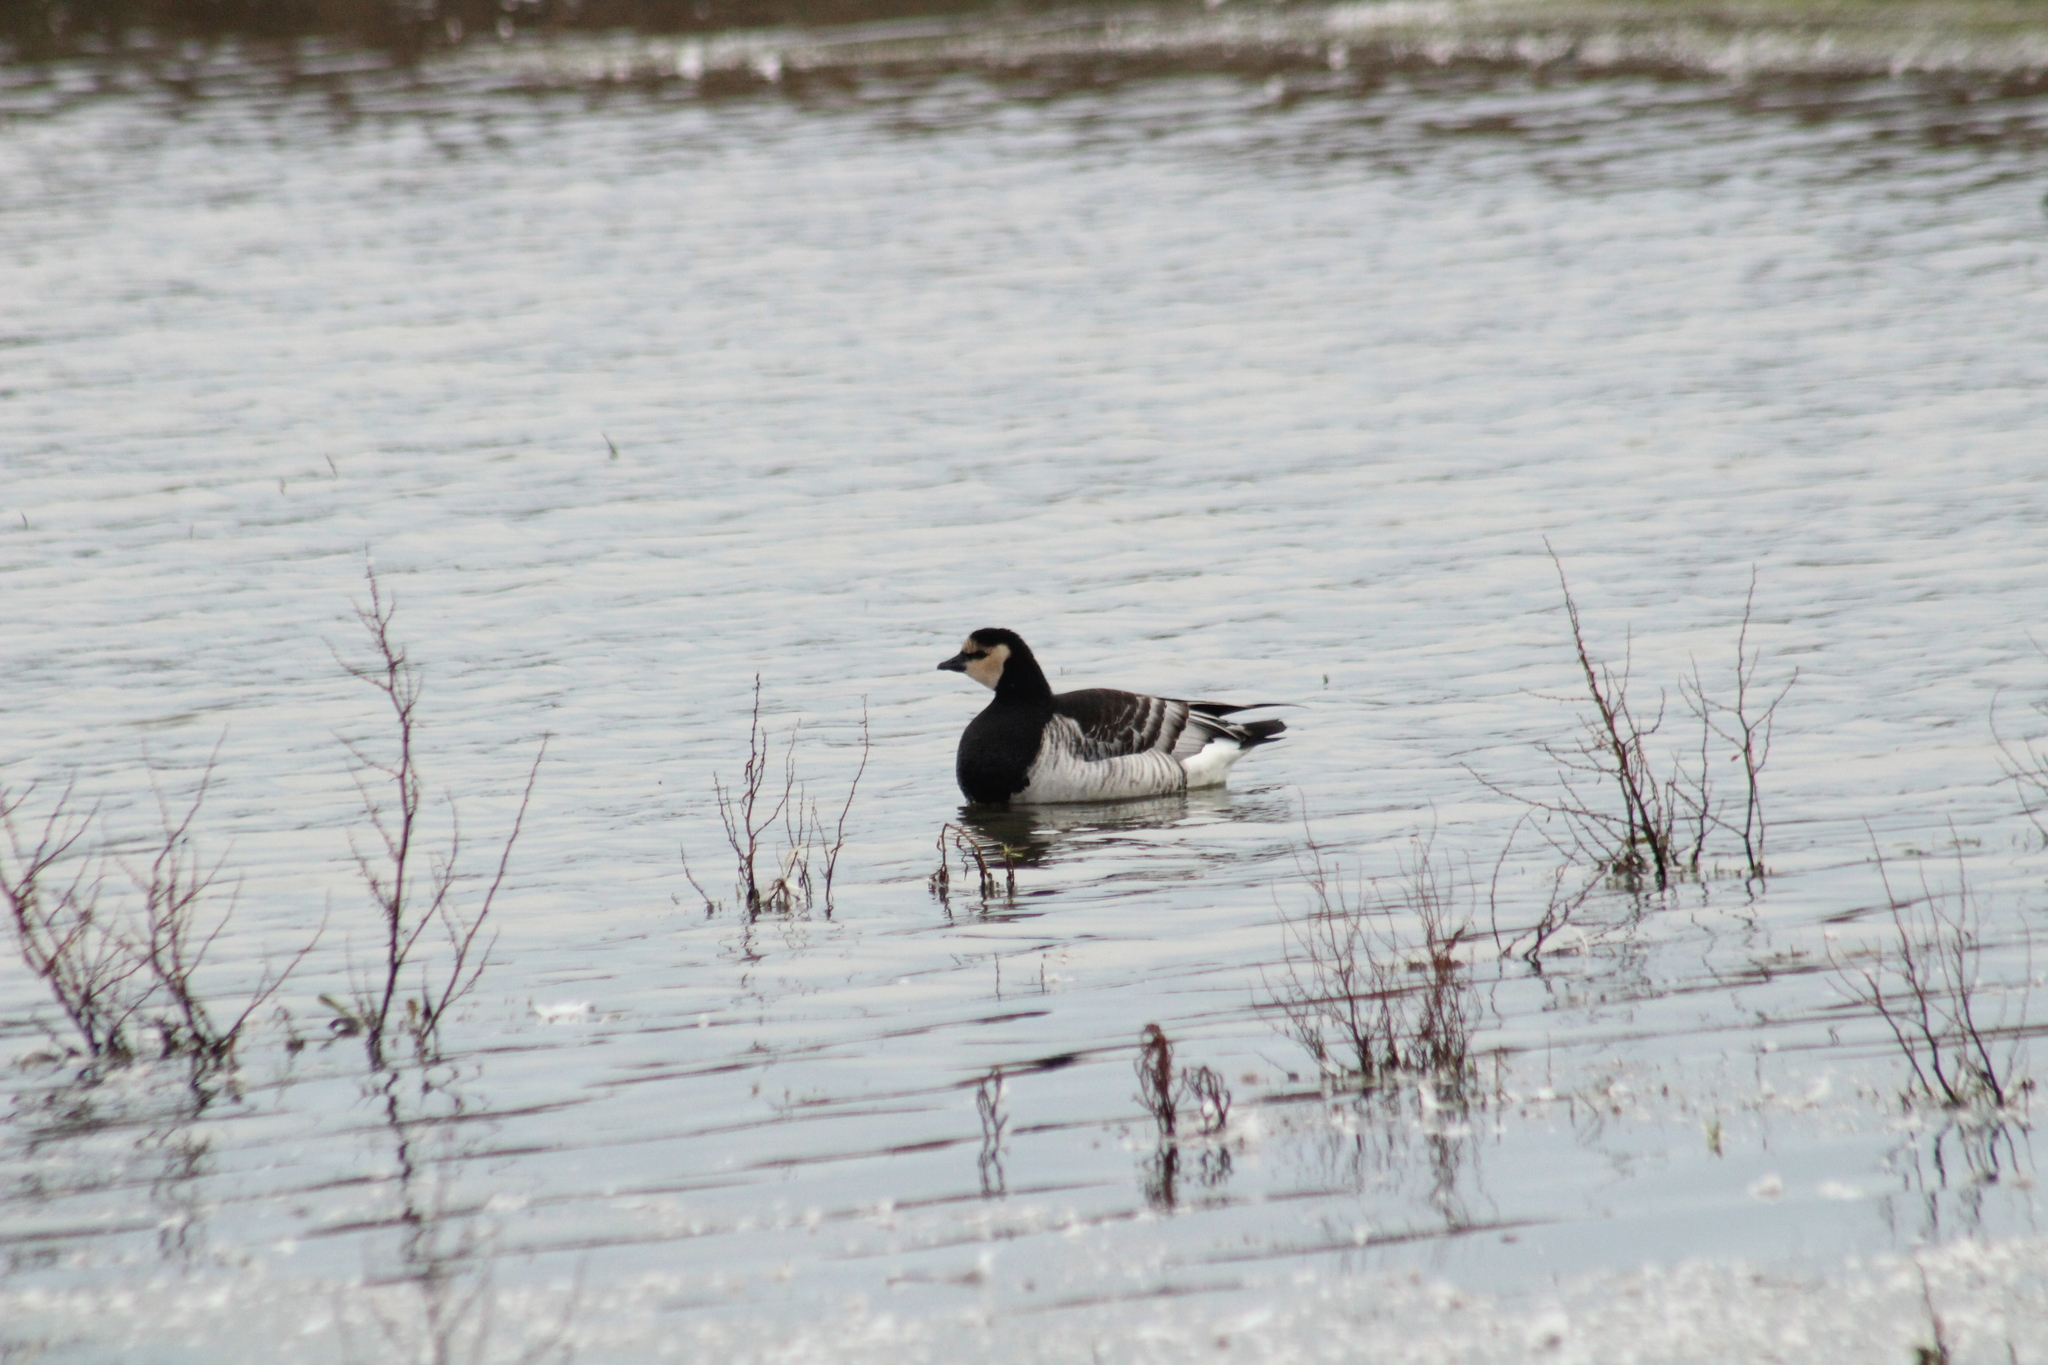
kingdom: Animalia
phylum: Chordata
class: Aves
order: Anseriformes
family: Anatidae
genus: Branta
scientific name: Branta leucopsis
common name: Barnacle goose
